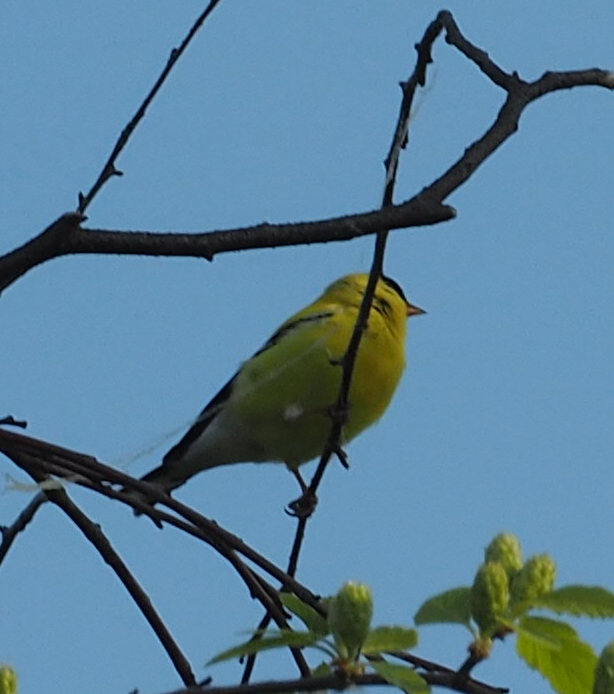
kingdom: Animalia
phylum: Chordata
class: Aves
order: Passeriformes
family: Fringillidae
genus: Spinus
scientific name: Spinus tristis
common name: American goldfinch
